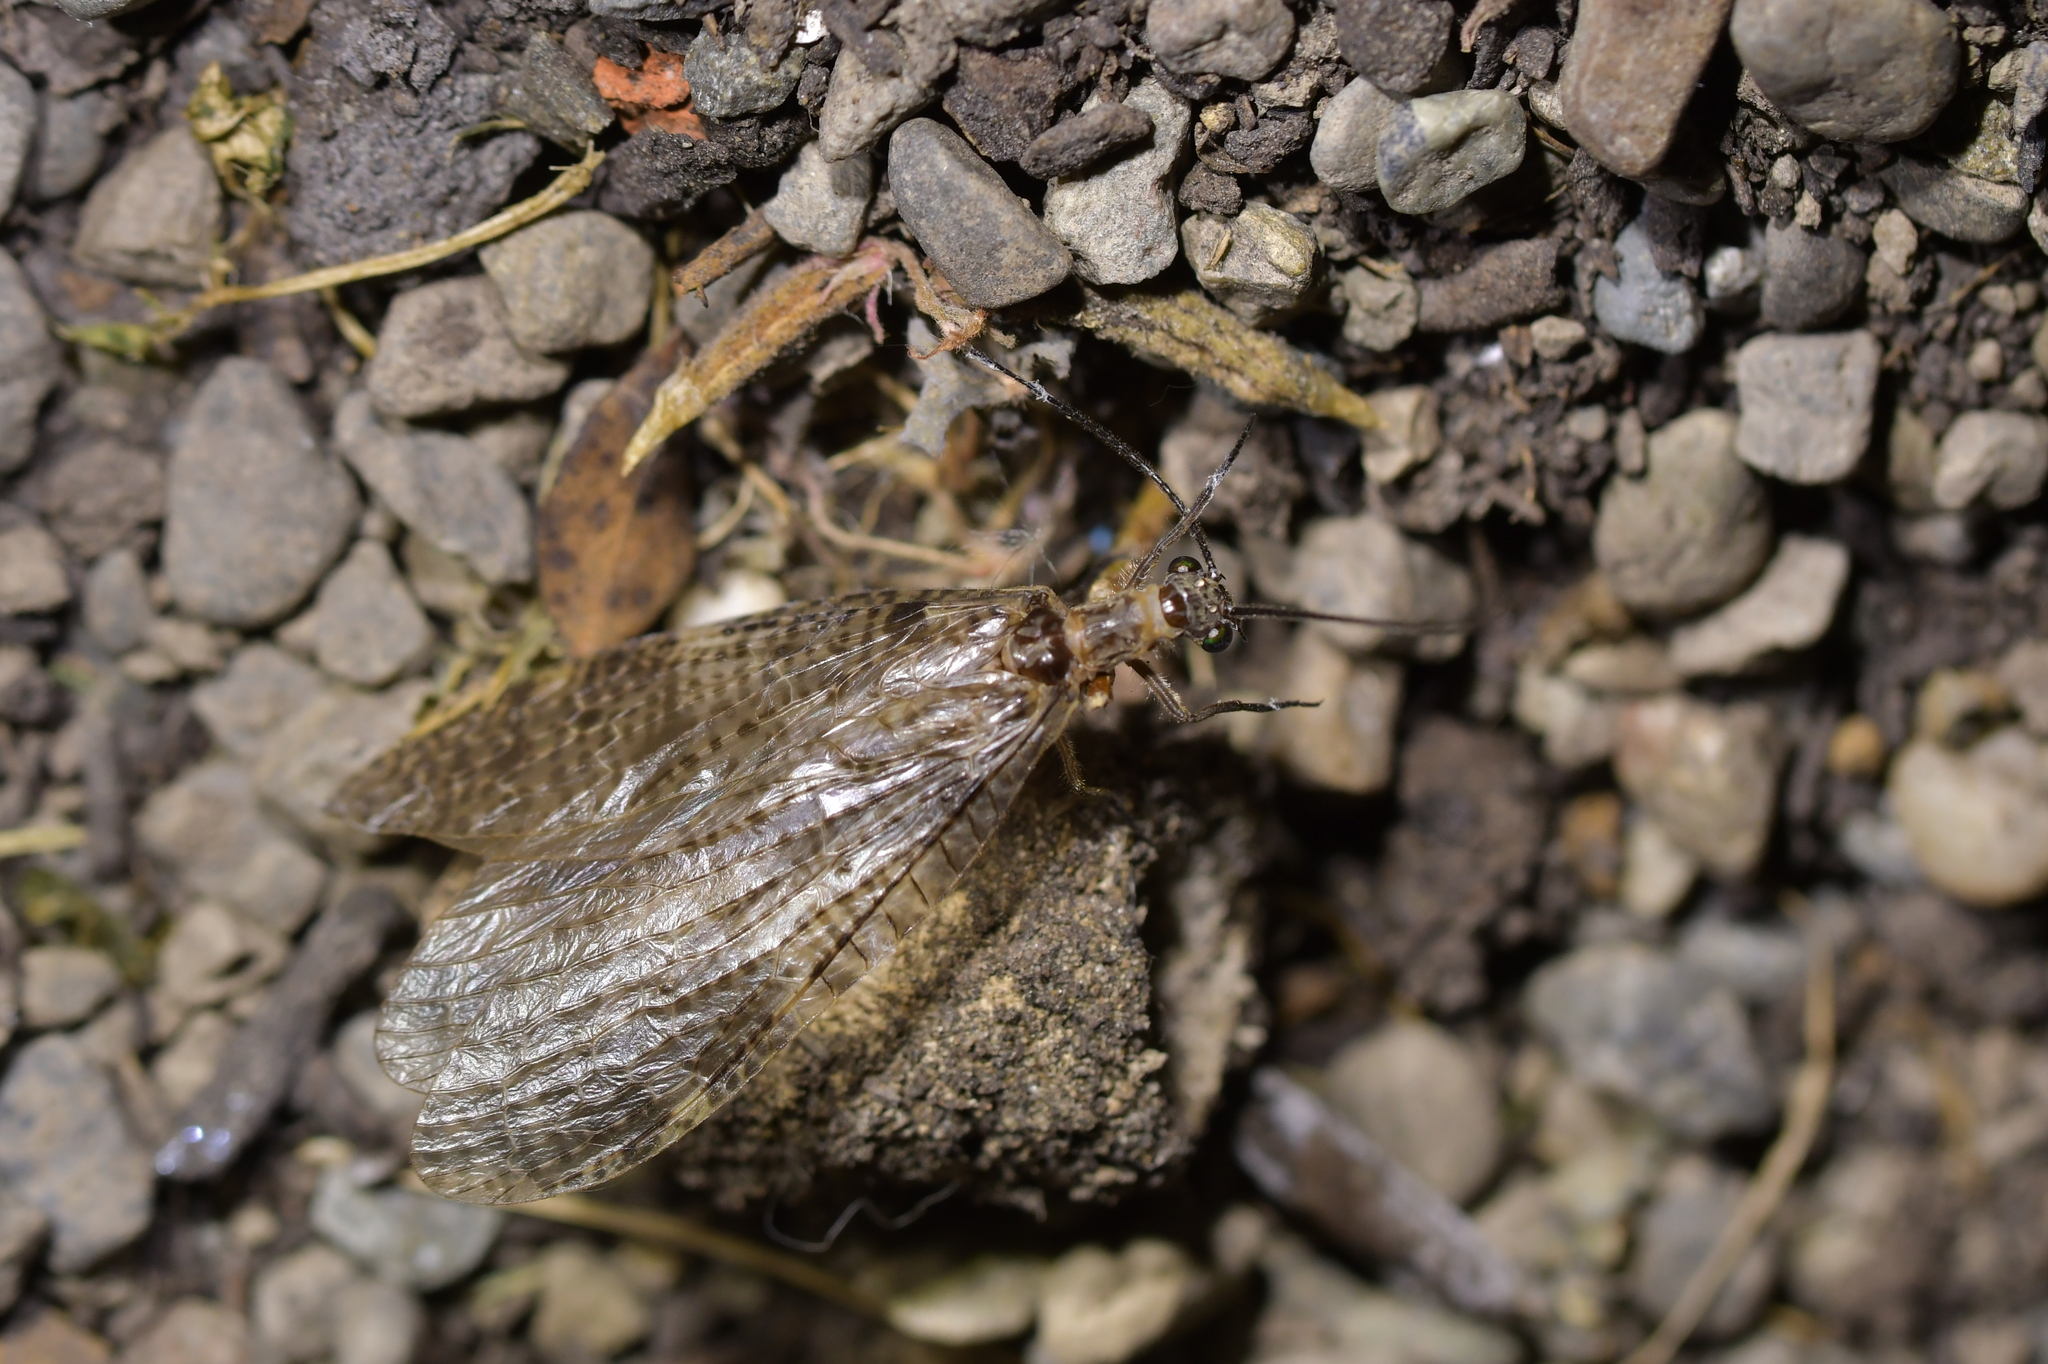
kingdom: Animalia
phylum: Arthropoda
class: Insecta
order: Megaloptera
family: Corydalidae
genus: Archichauliodes
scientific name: Archichauliodes diversus
